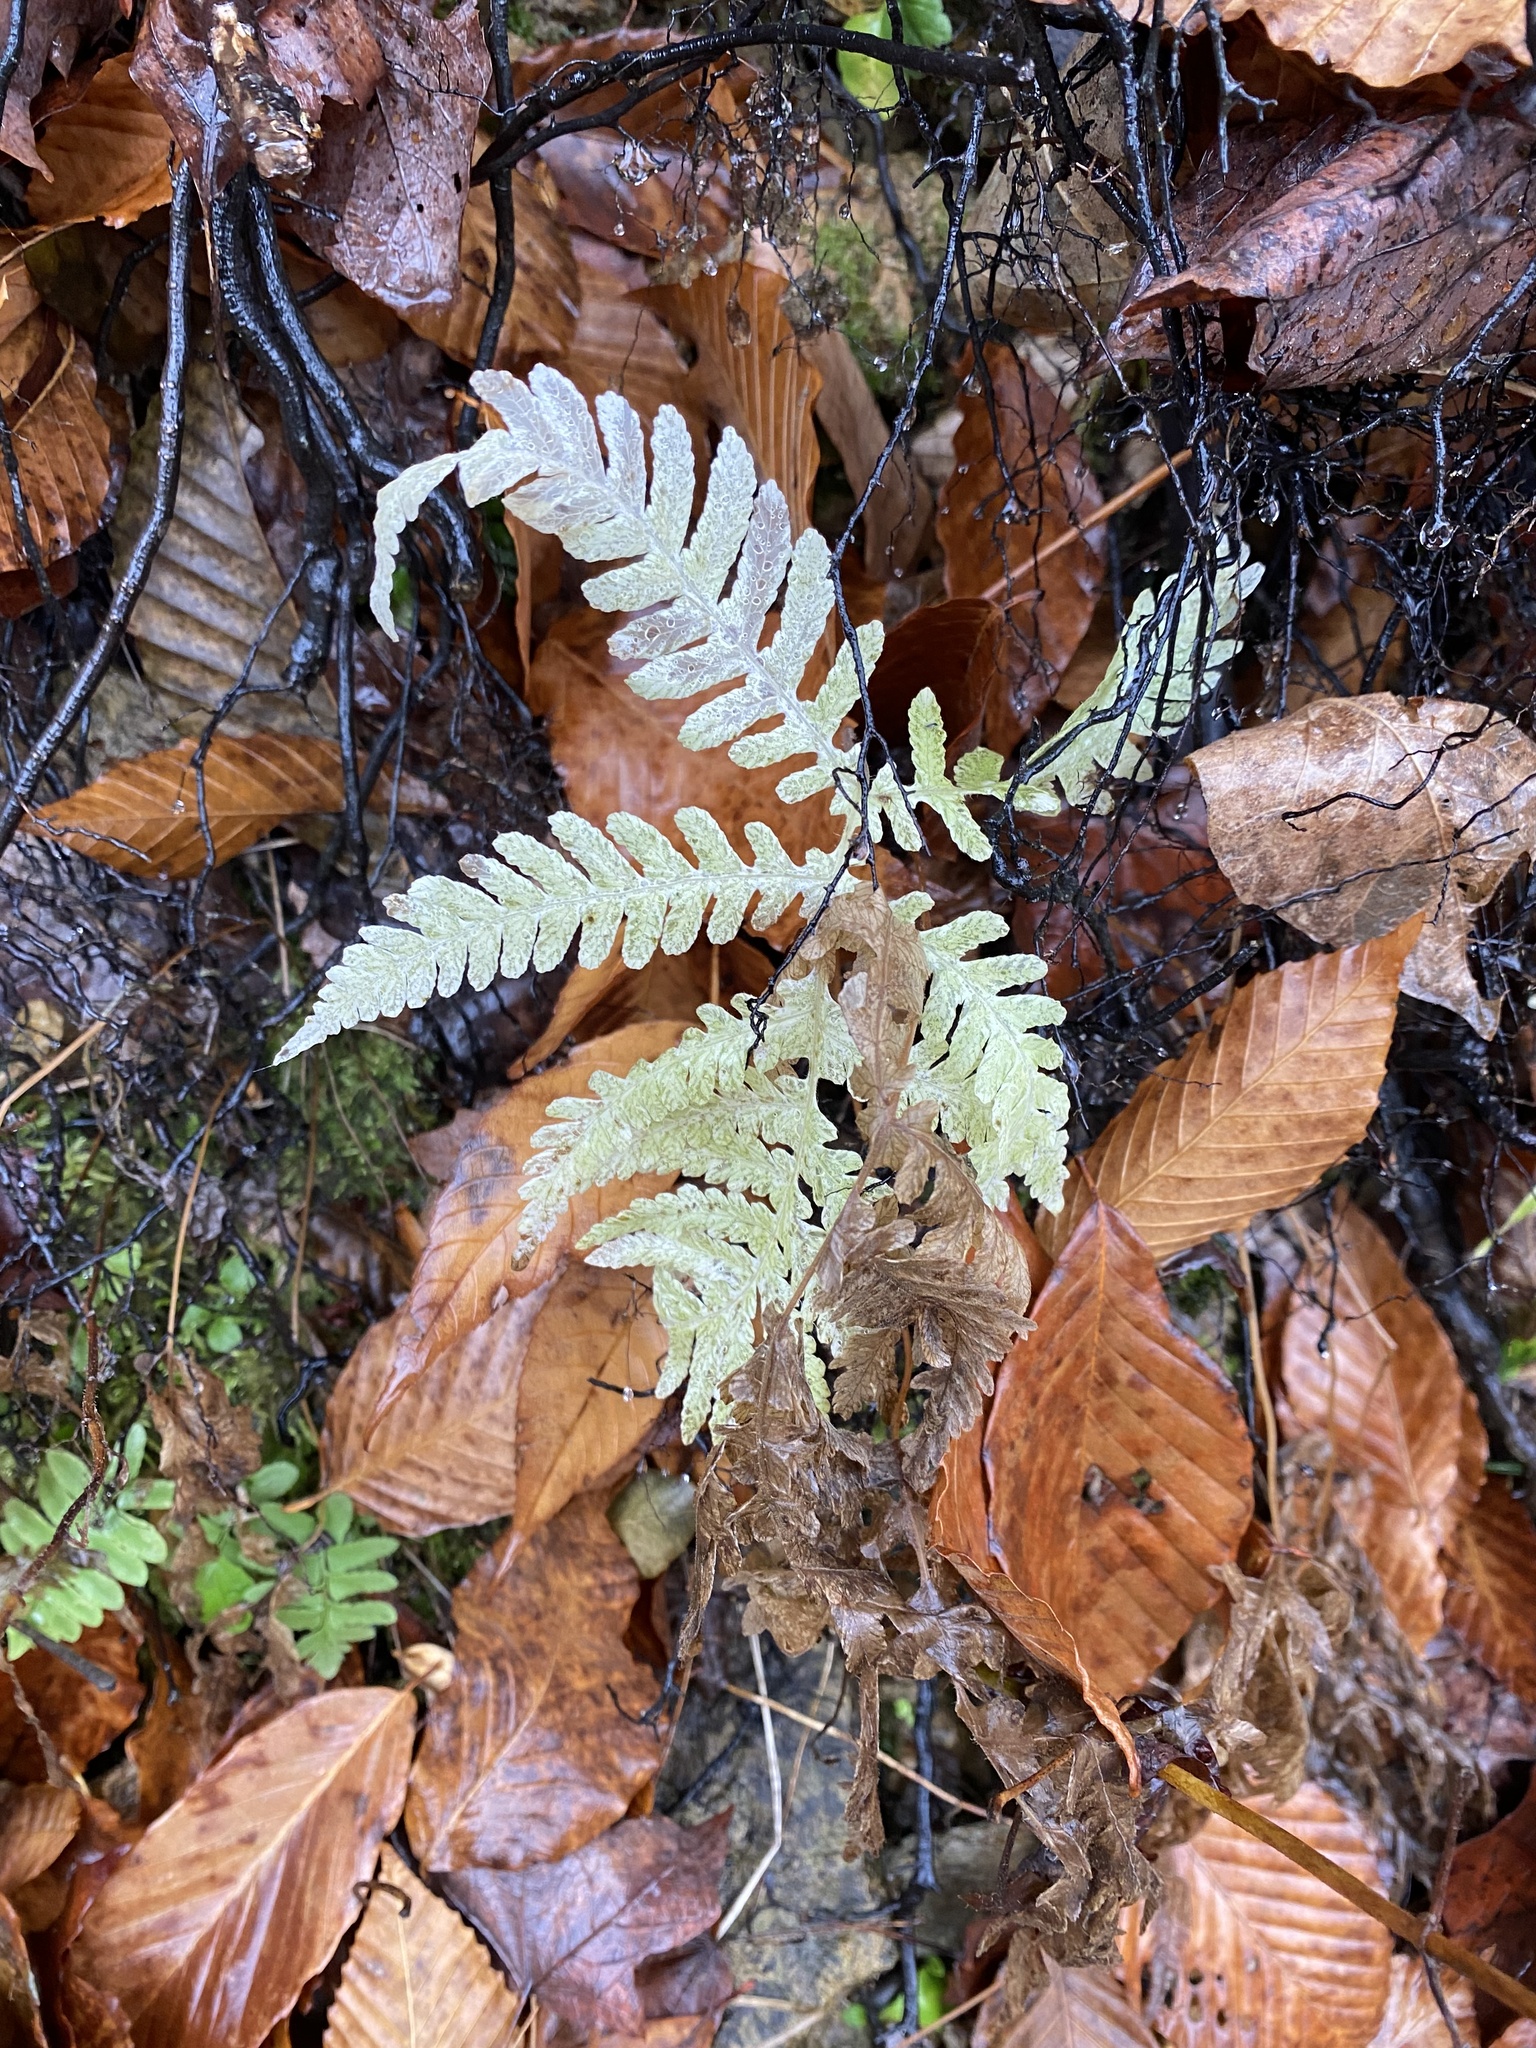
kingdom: Plantae
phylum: Tracheophyta
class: Polypodiopsida
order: Polypodiales
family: Thelypteridaceae
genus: Phegopteris
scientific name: Phegopteris hexagonoptera
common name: Broad beech fern
